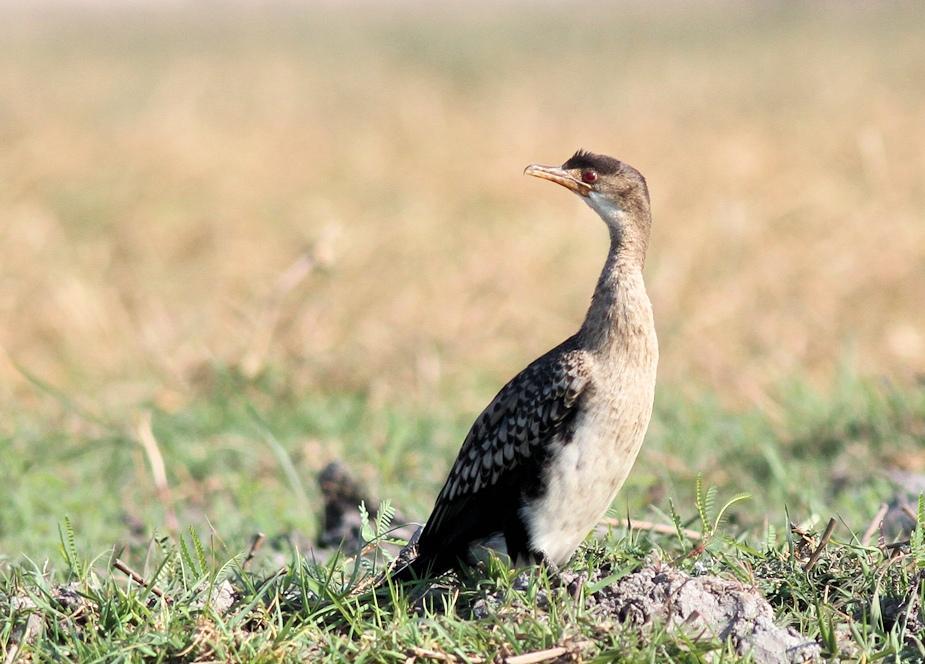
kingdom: Animalia
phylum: Chordata
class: Aves
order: Suliformes
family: Phalacrocoracidae
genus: Microcarbo
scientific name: Microcarbo africanus
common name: Long-tailed cormorant
